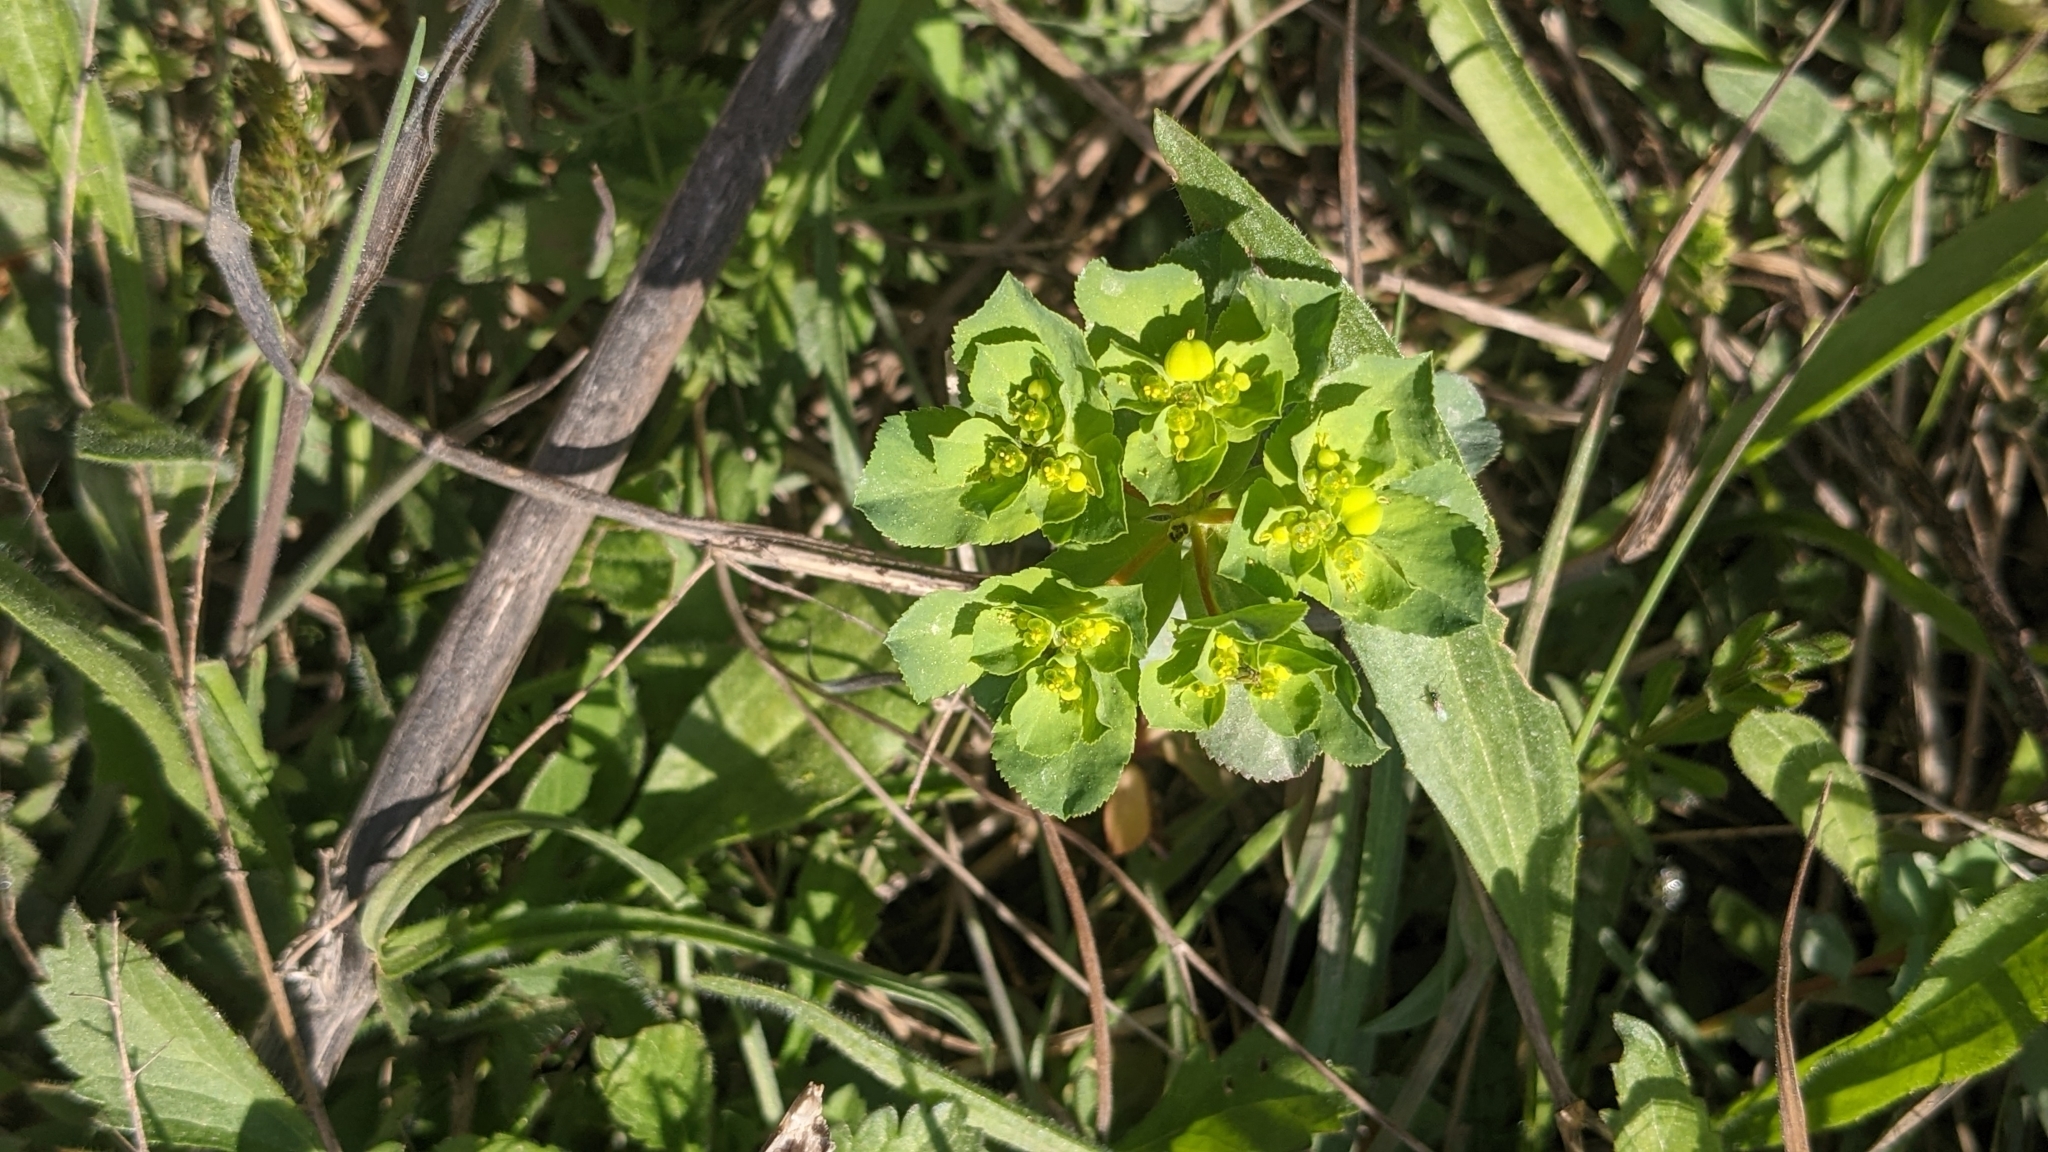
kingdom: Plantae
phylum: Tracheophyta
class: Magnoliopsida
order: Malpighiales
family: Euphorbiaceae
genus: Euphorbia
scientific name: Euphorbia helioscopia
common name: Sun spurge
